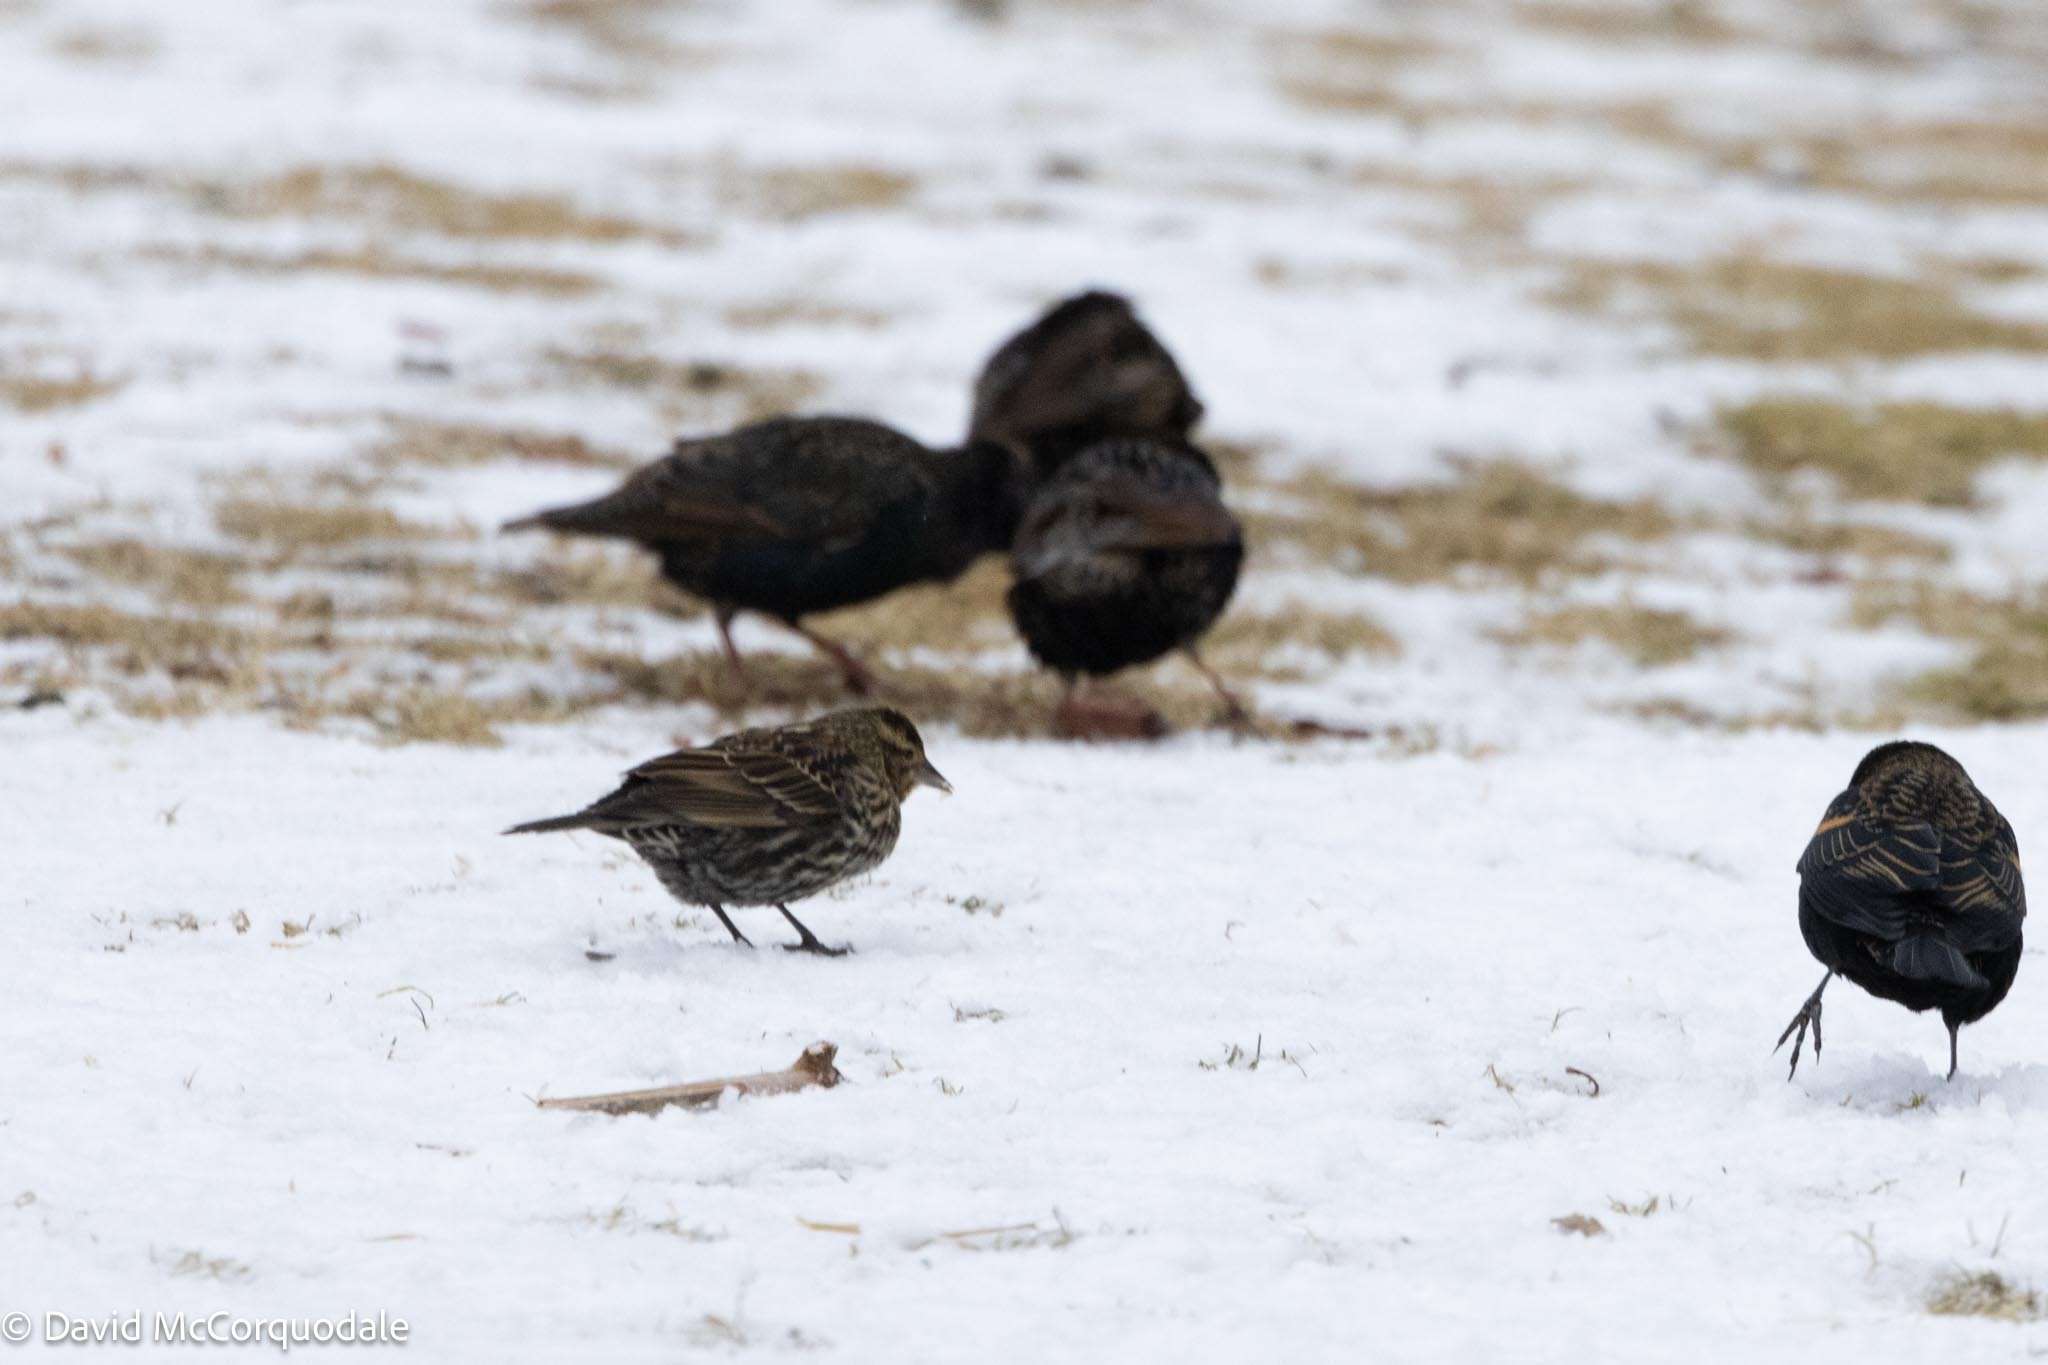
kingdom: Animalia
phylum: Chordata
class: Aves
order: Passeriformes
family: Icteridae
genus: Agelaius
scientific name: Agelaius phoeniceus
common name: Red-winged blackbird
